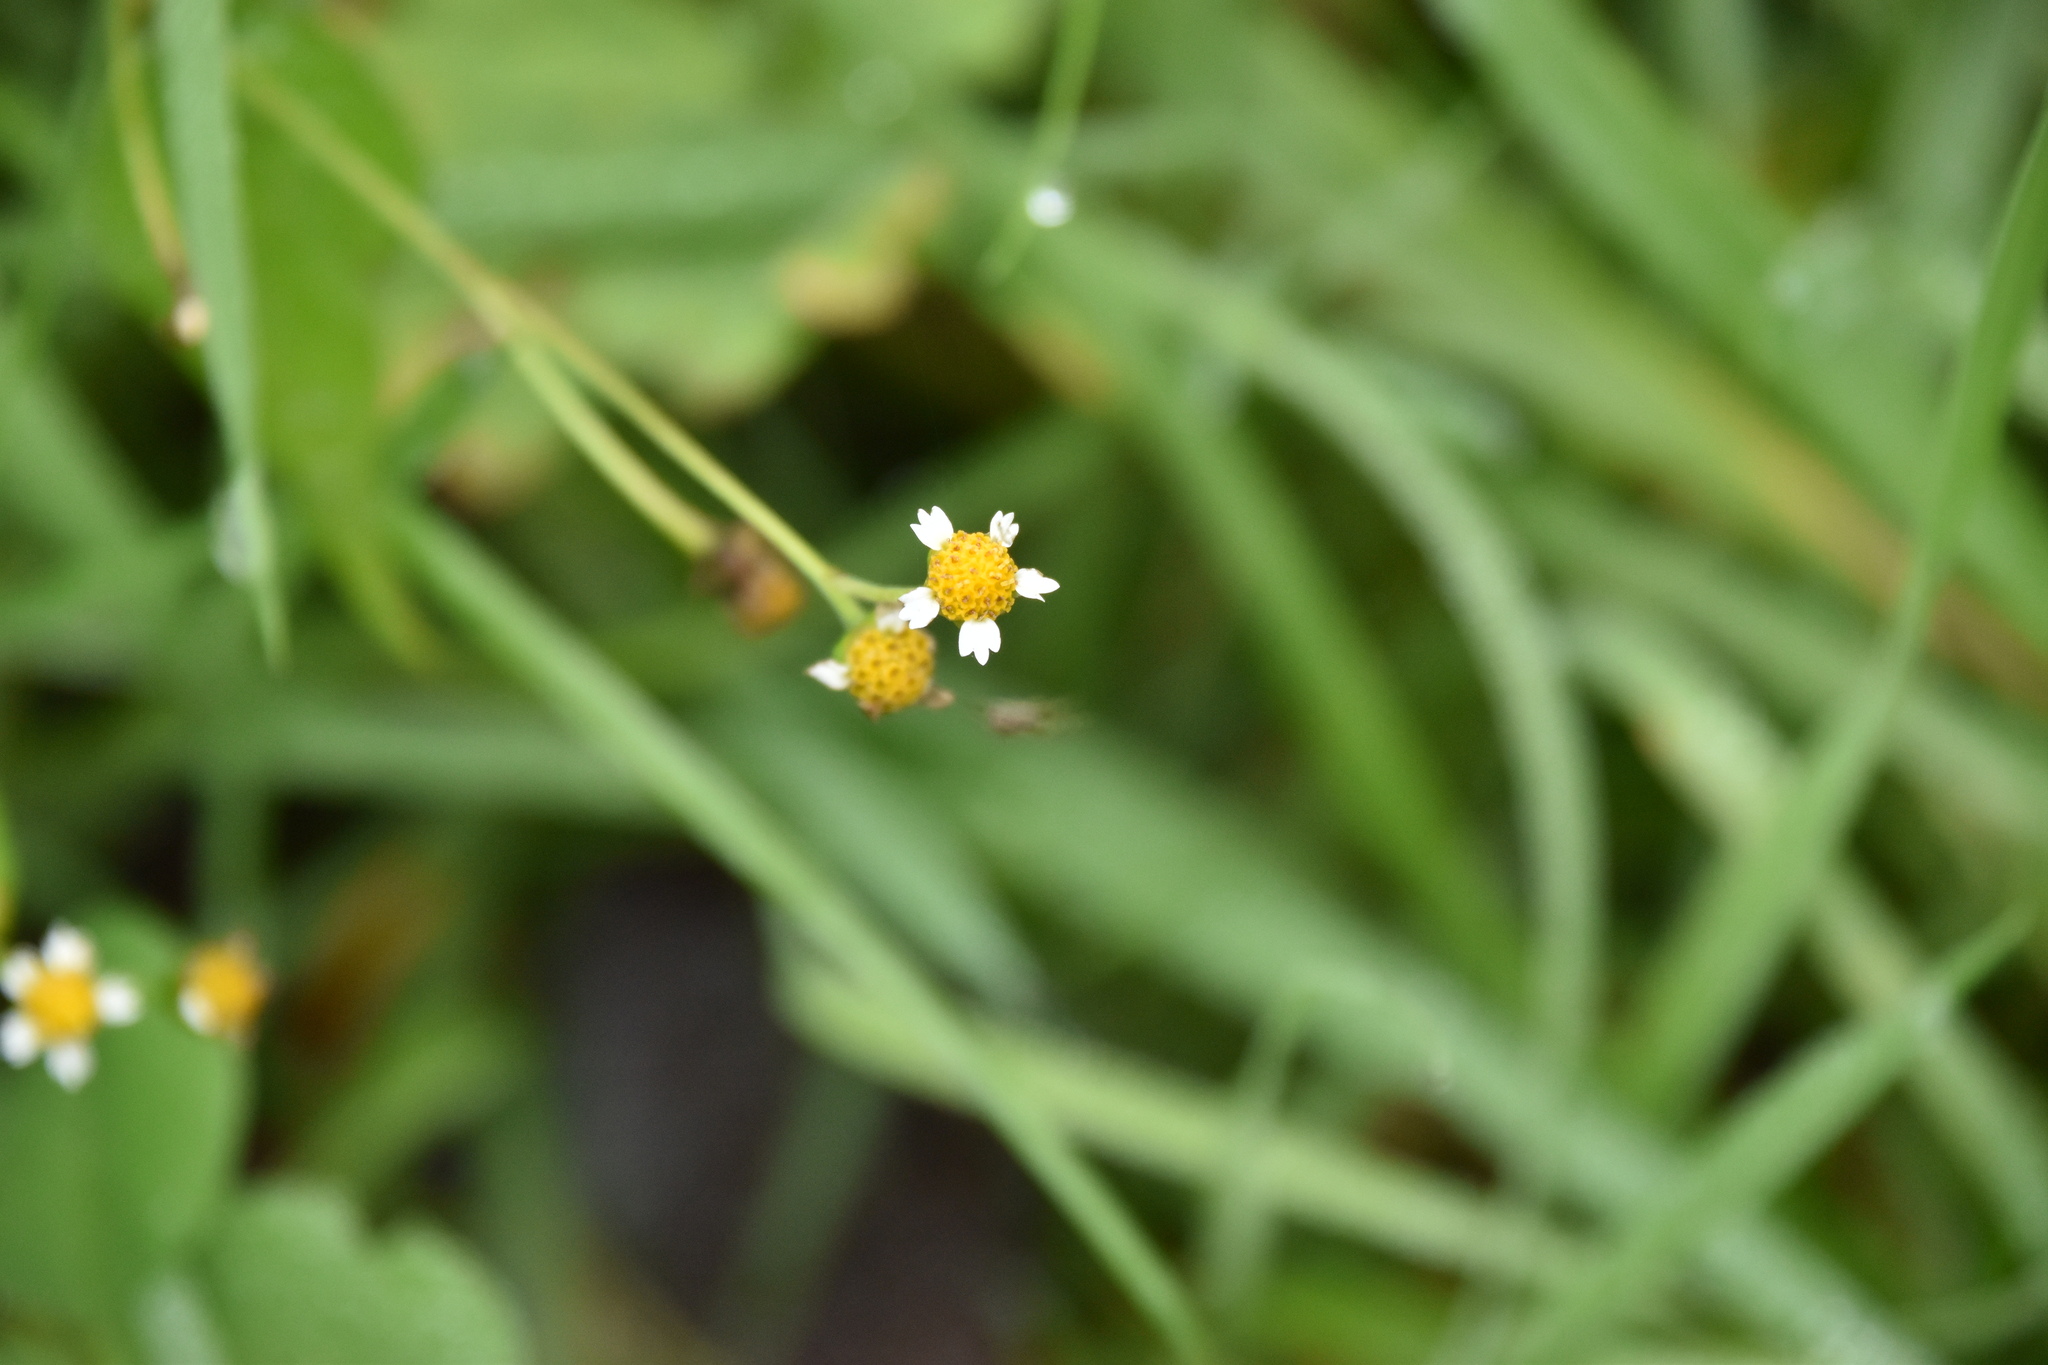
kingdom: Plantae
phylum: Tracheophyta
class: Magnoliopsida
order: Asterales
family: Asteraceae
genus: Galinsoga
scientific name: Galinsoga parviflora
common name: Gallant soldier
